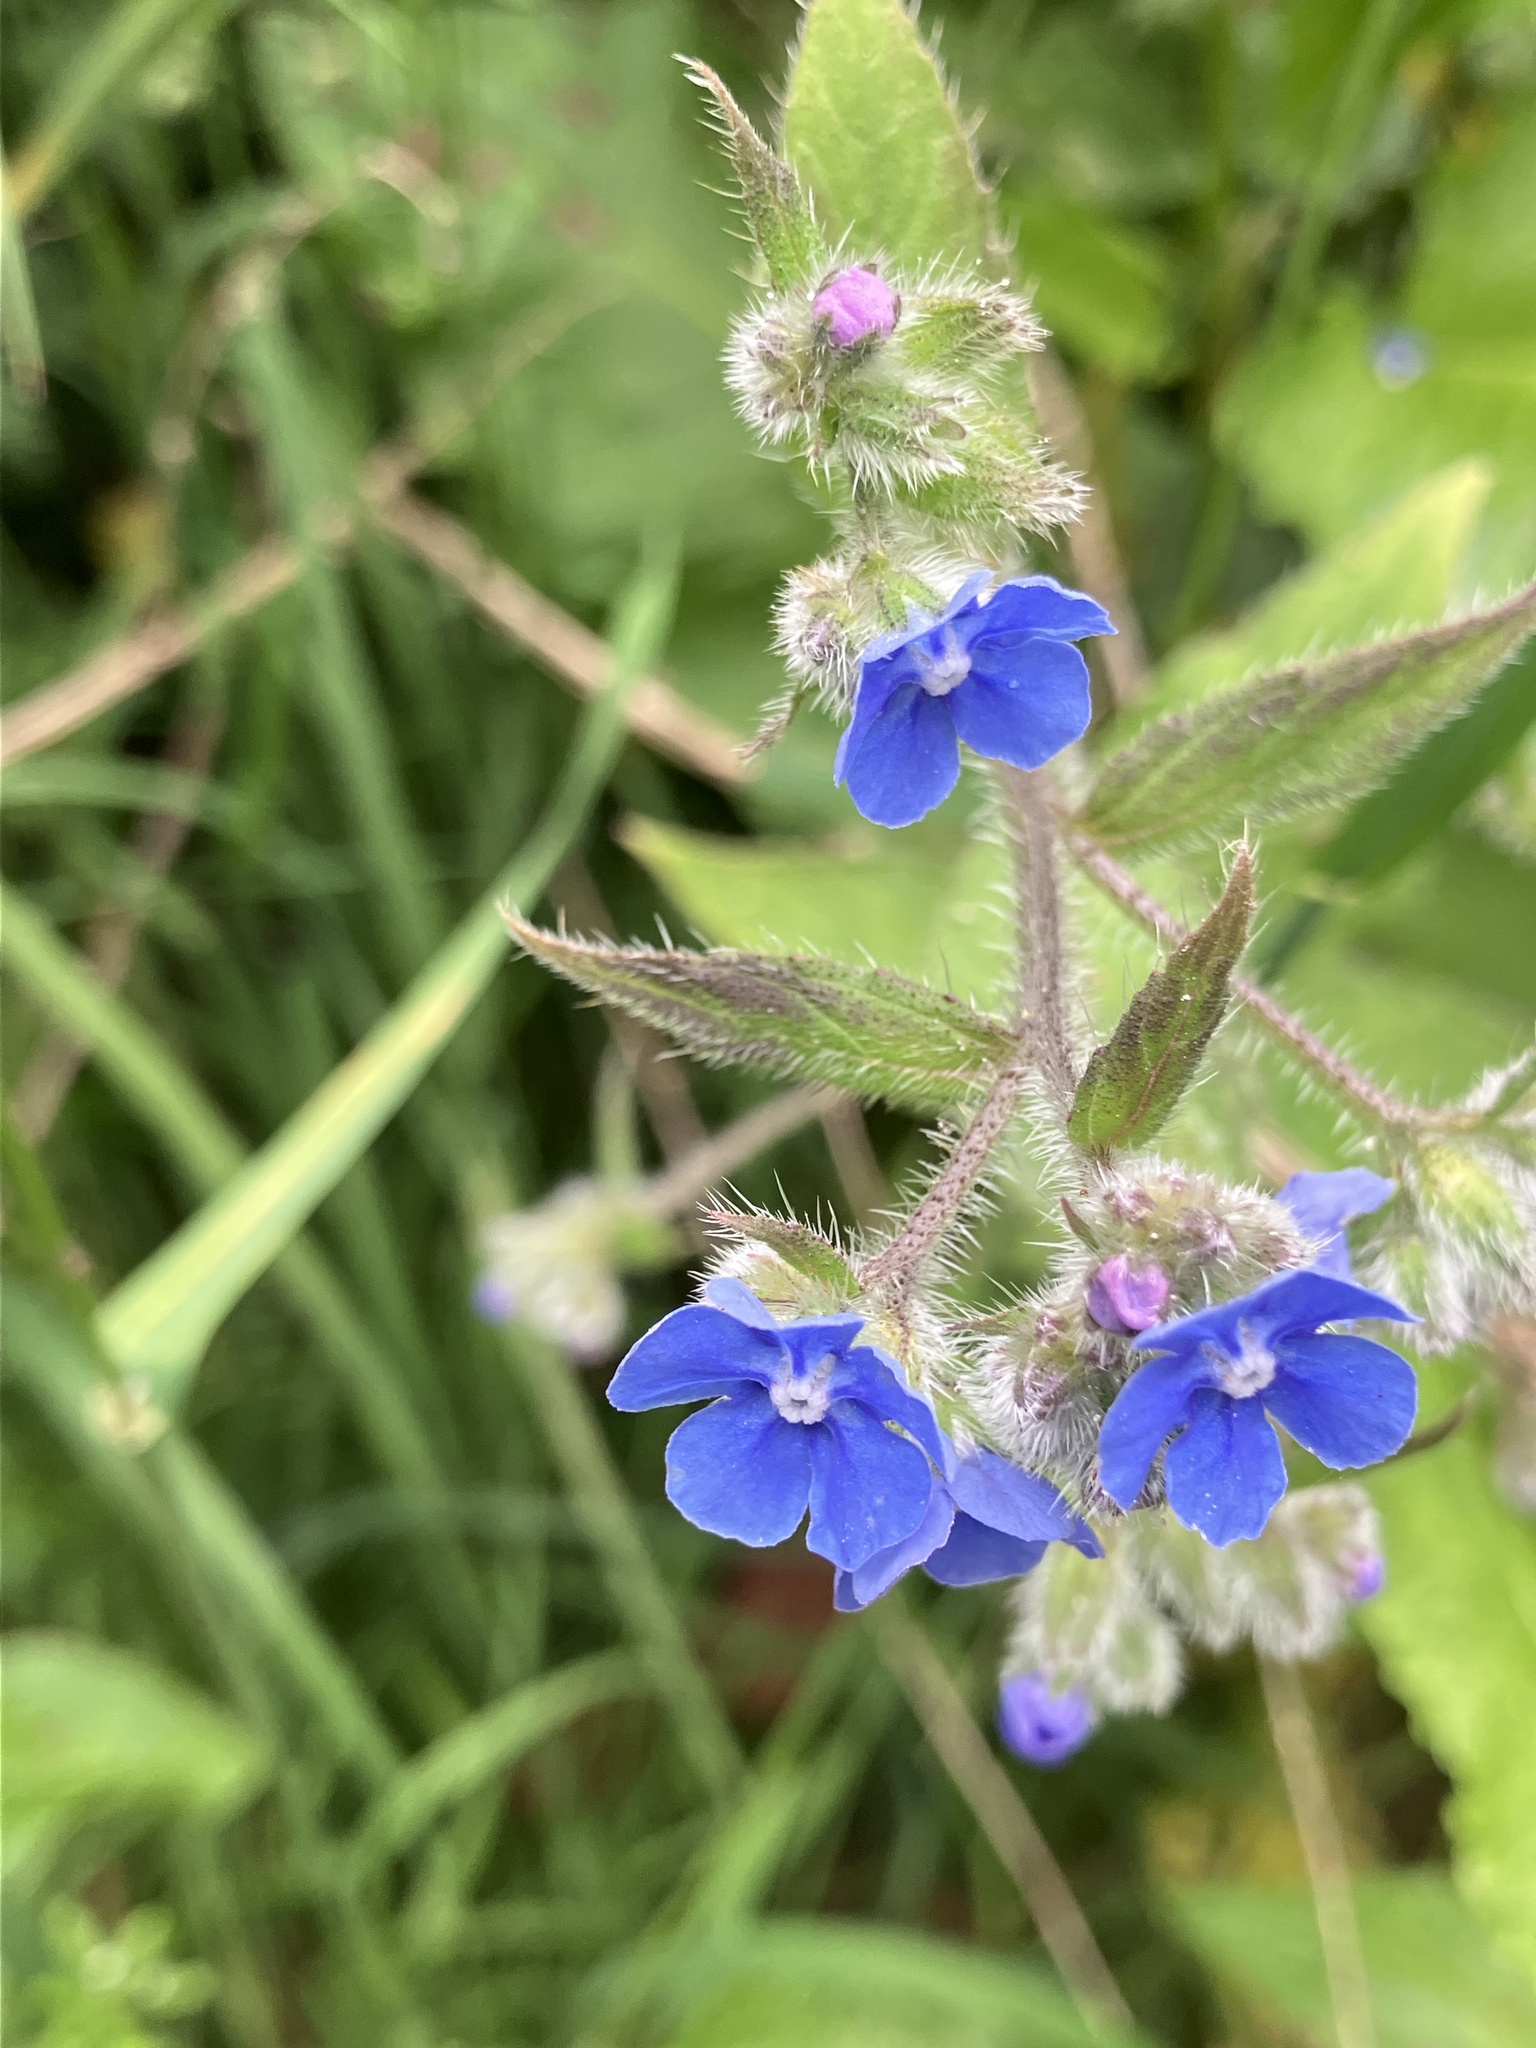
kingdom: Plantae
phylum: Tracheophyta
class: Magnoliopsida
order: Boraginales
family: Boraginaceae
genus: Pentaglottis
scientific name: Pentaglottis sempervirens
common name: Green alkanet
